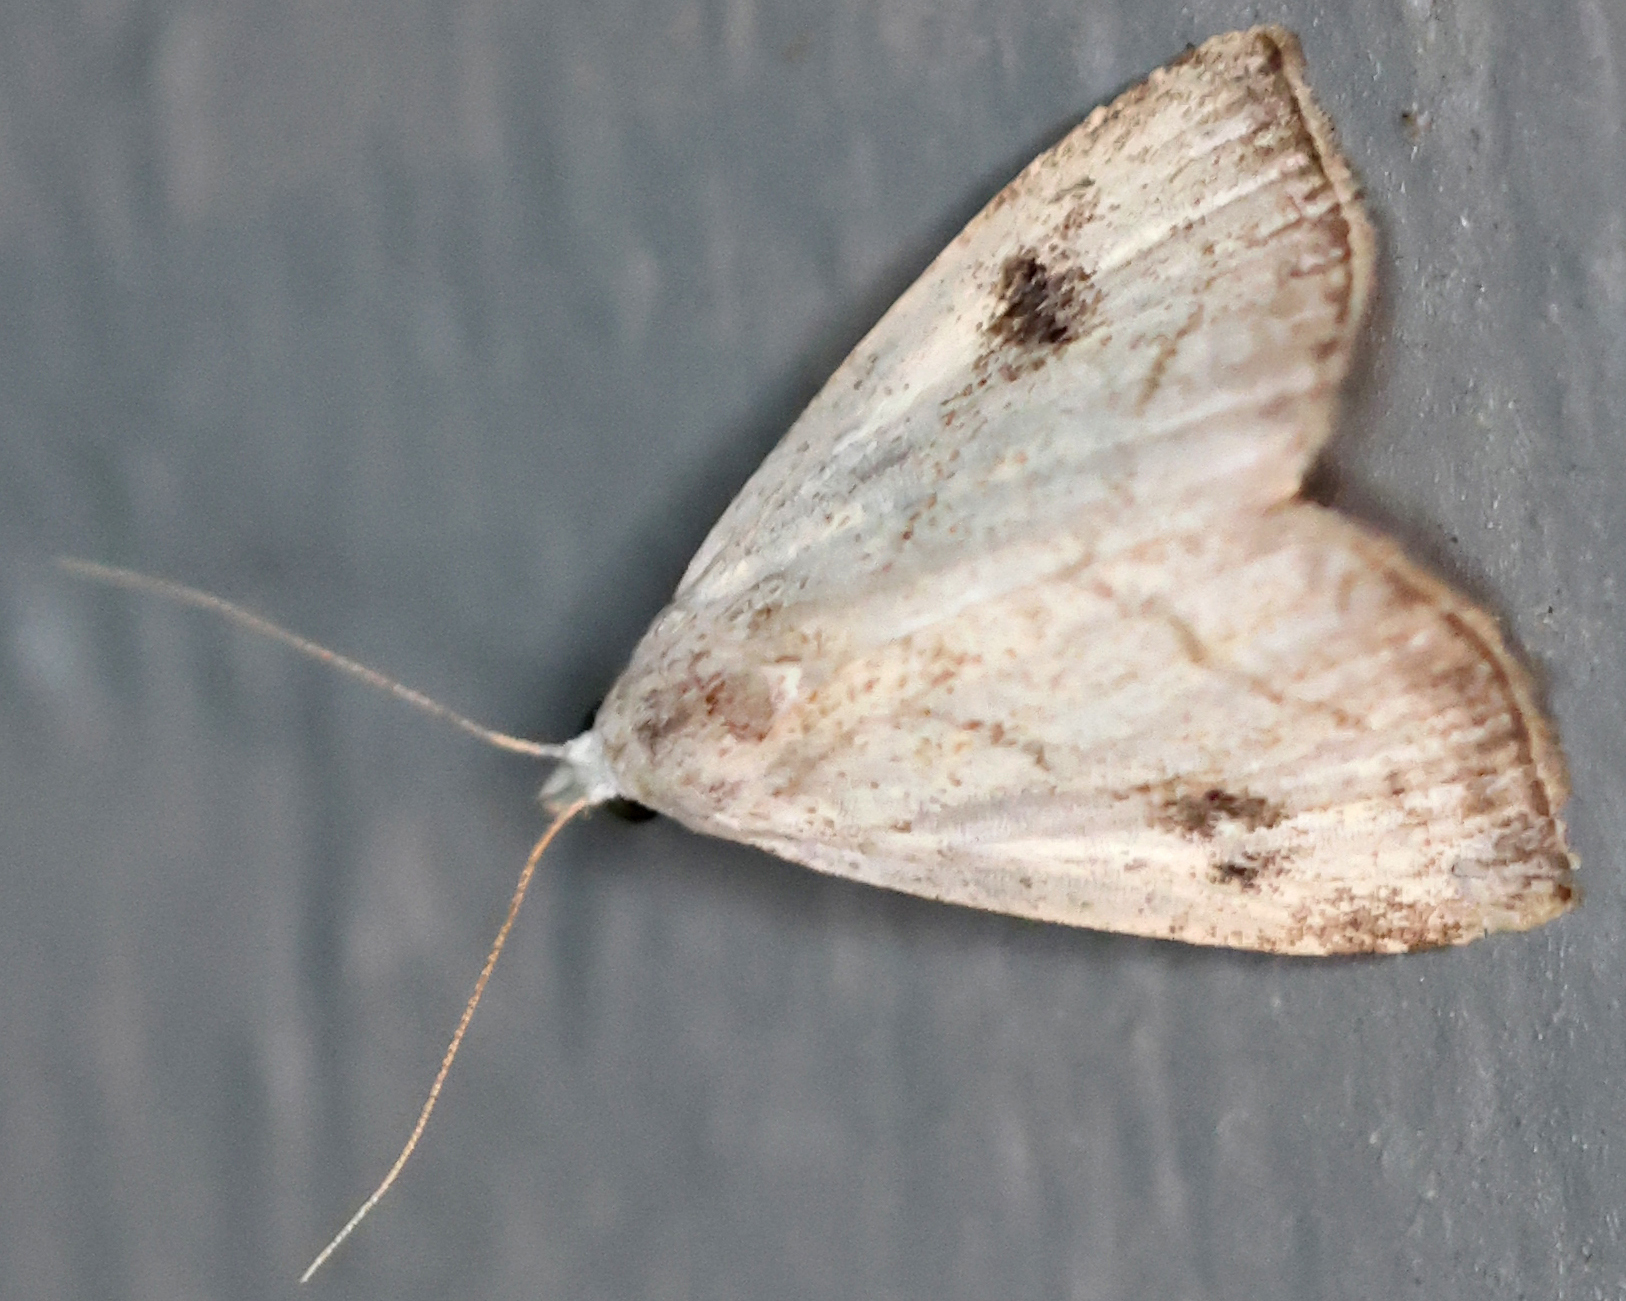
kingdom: Animalia
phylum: Arthropoda
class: Insecta
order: Lepidoptera
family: Erebidae
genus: Rivula
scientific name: Rivula propinqualis
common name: Spotted grass moth
